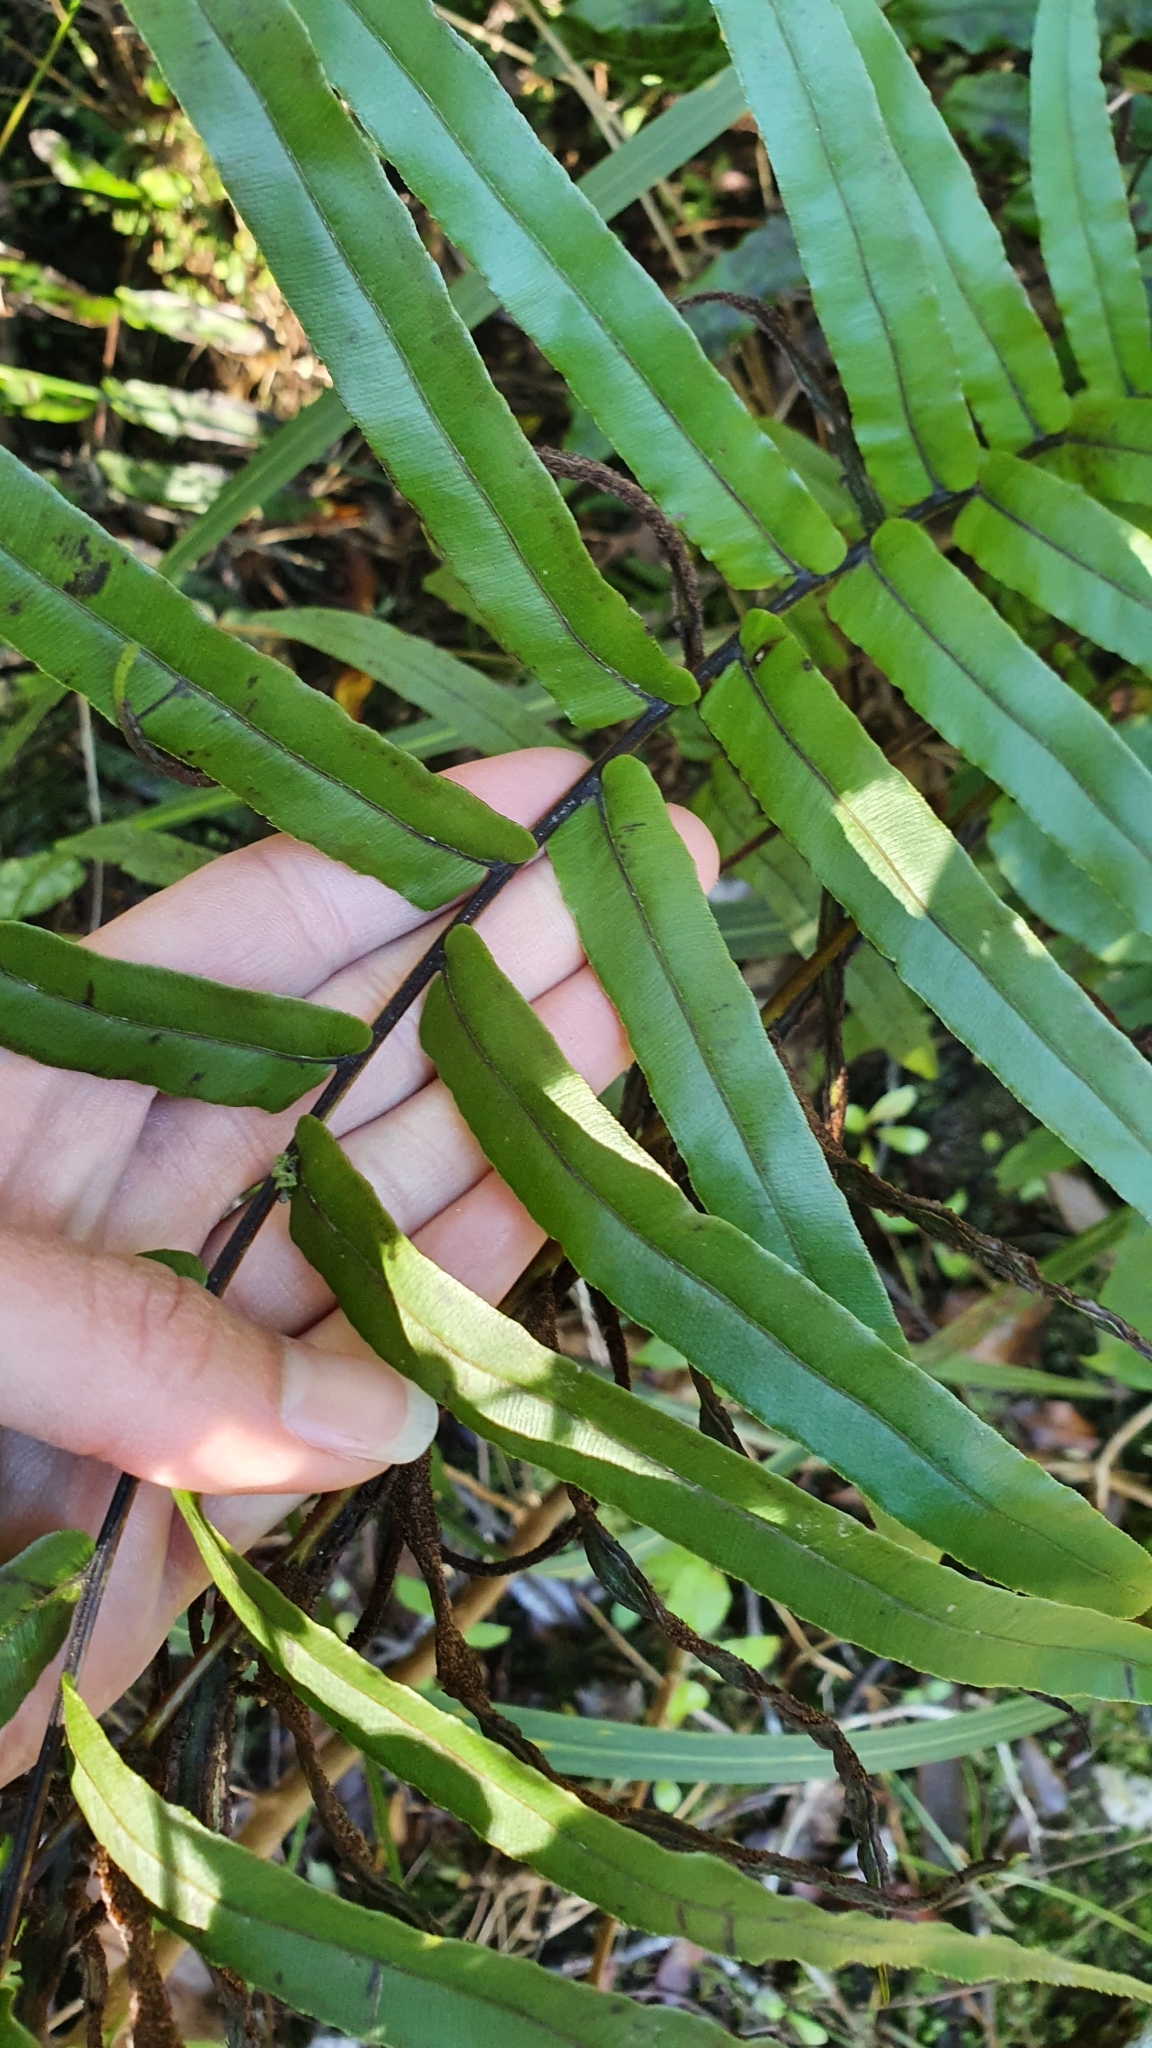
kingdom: Plantae
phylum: Tracheophyta
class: Polypodiopsida
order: Polypodiales
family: Blechnaceae
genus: Parablechnum
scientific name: Parablechnum minus
